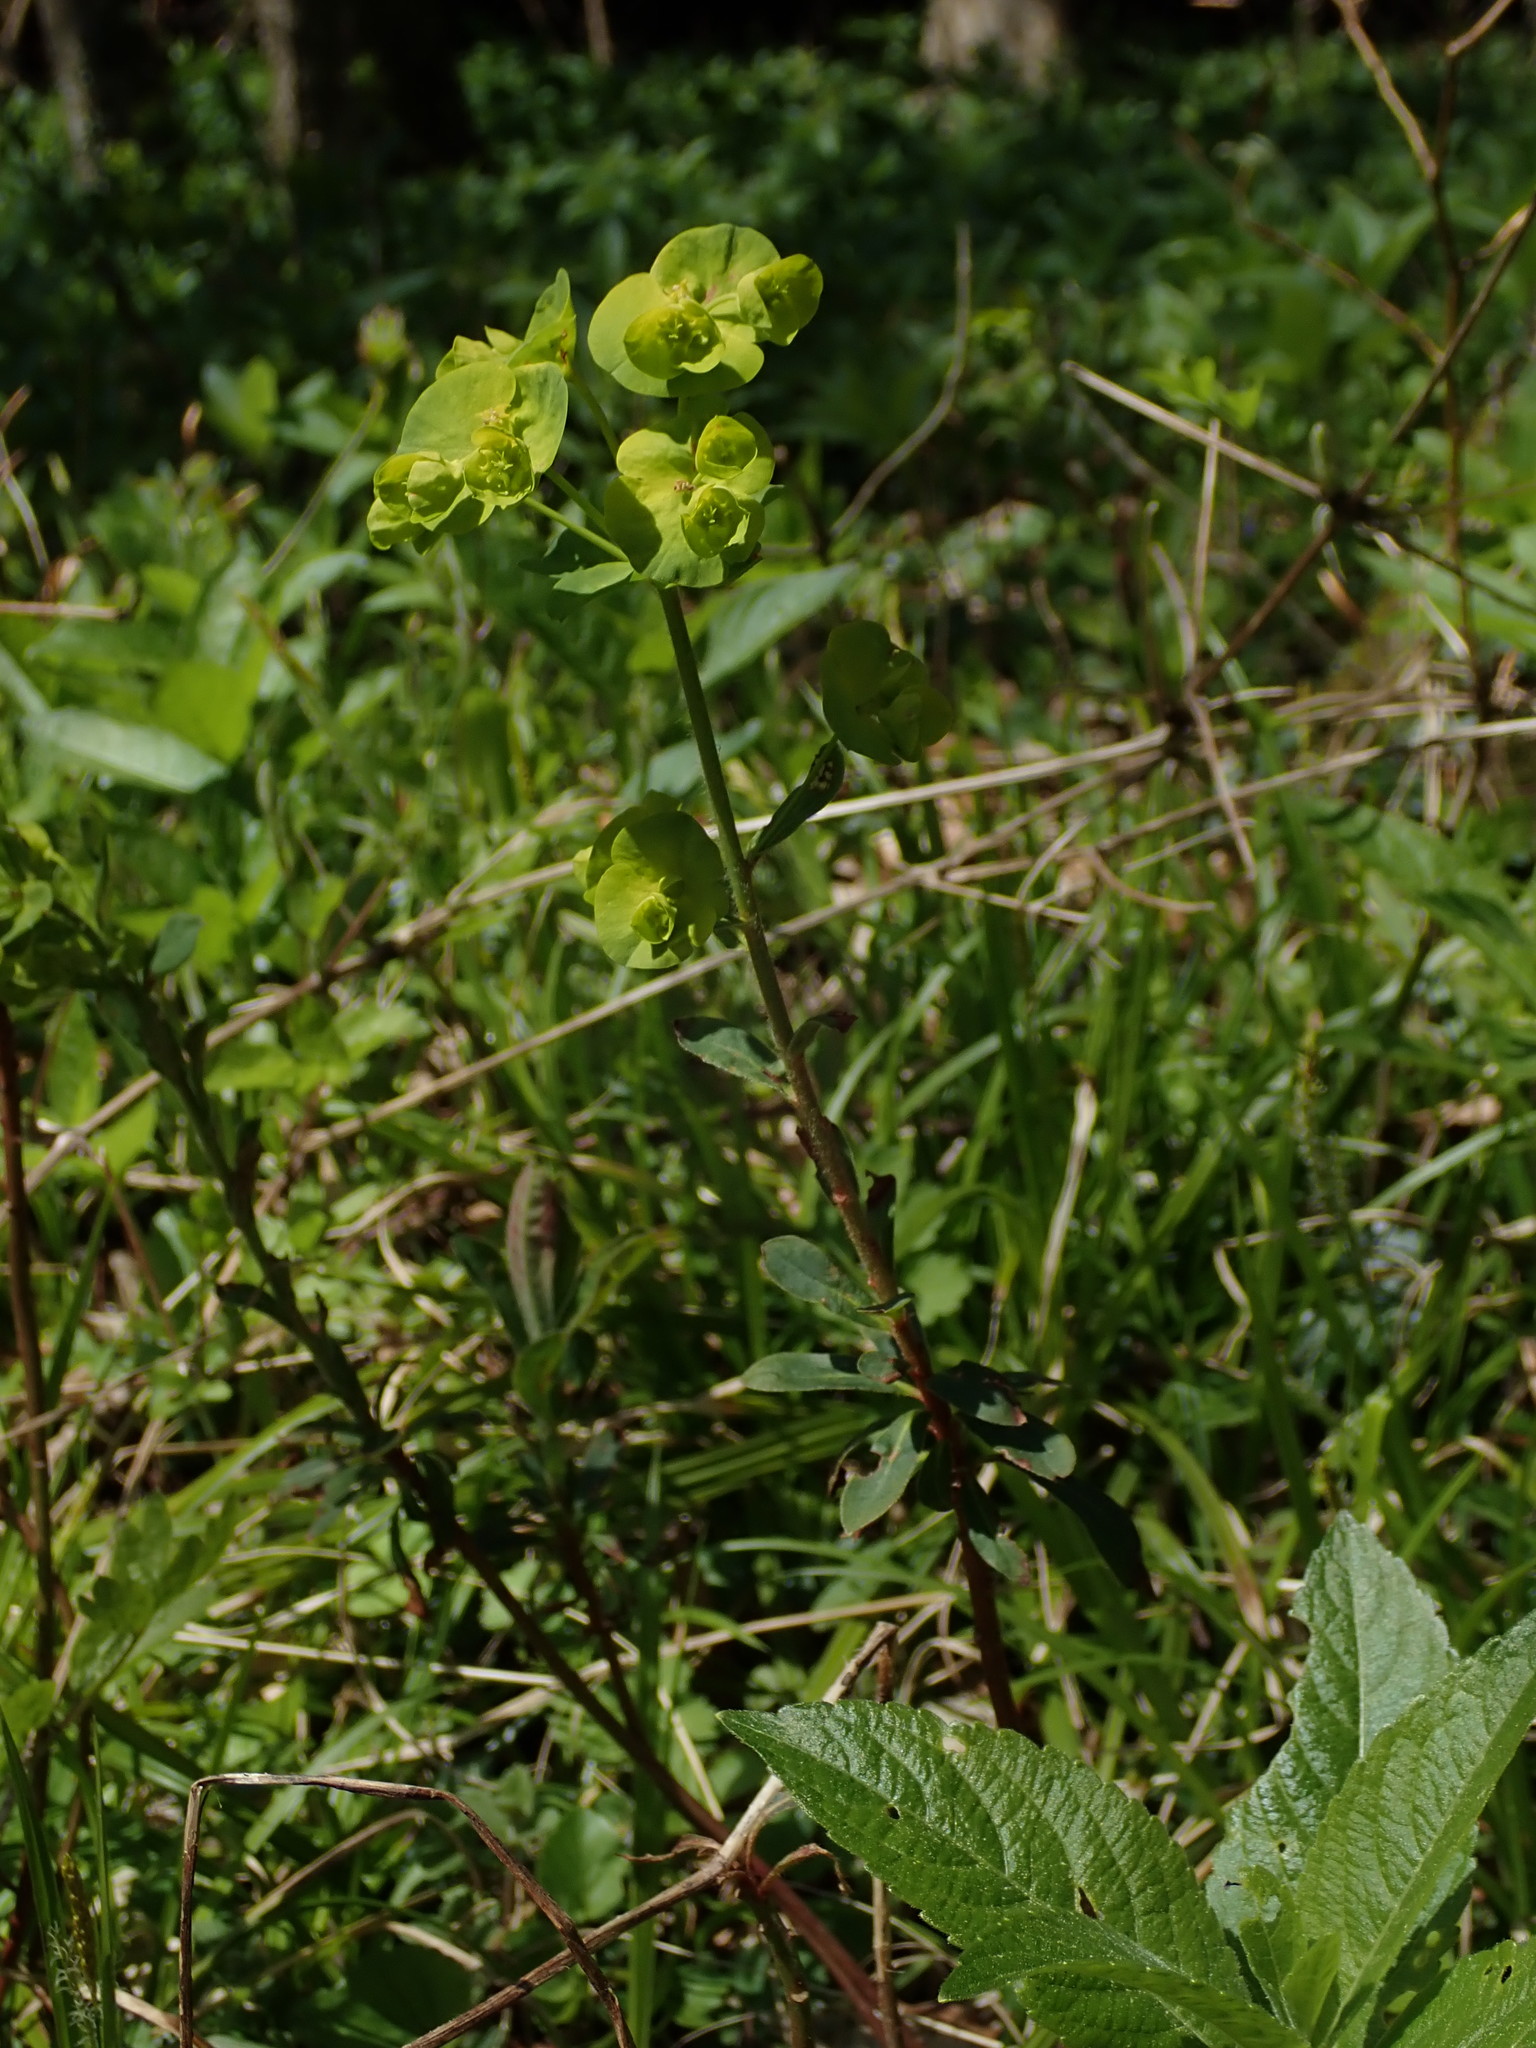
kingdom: Plantae
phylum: Tracheophyta
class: Magnoliopsida
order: Malpighiales
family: Euphorbiaceae
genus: Euphorbia
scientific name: Euphorbia amygdaloides
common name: Wood spurge
